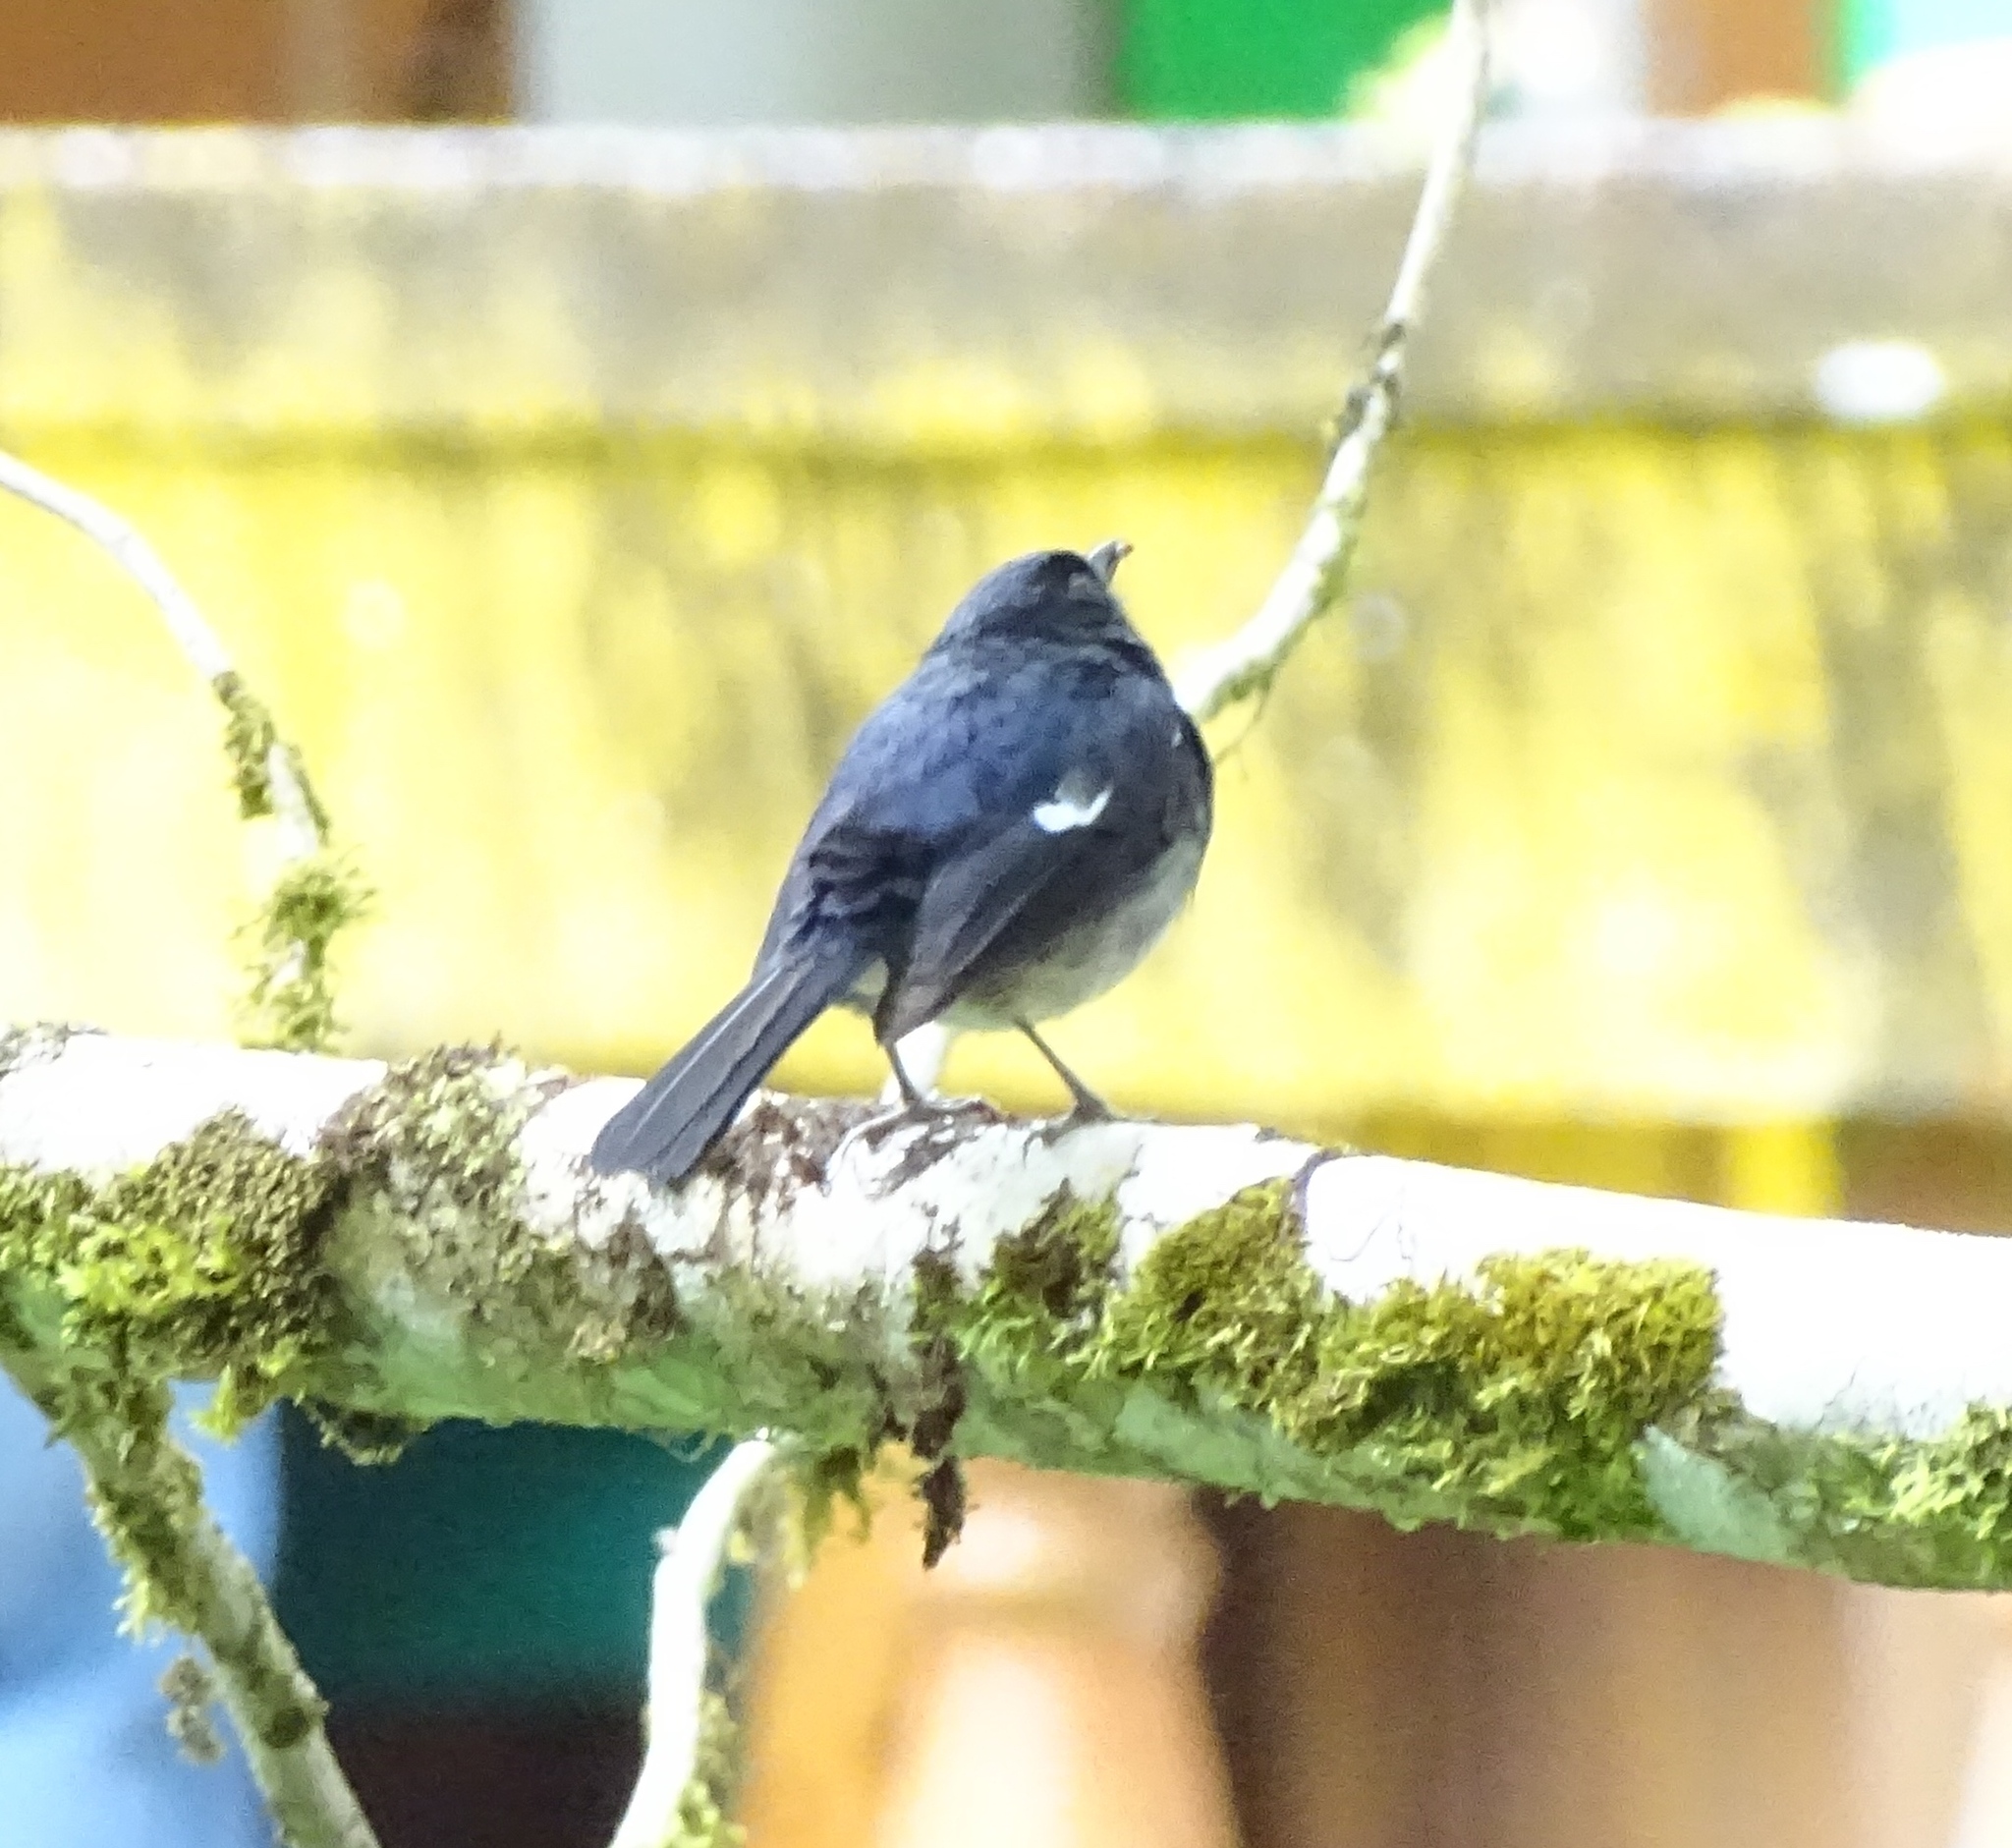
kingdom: Animalia
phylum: Chordata
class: Aves
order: Passeriformes
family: Muscicapidae
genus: Copsychus
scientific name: Copsychus albospecularis
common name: Madagascar magpie-robin
